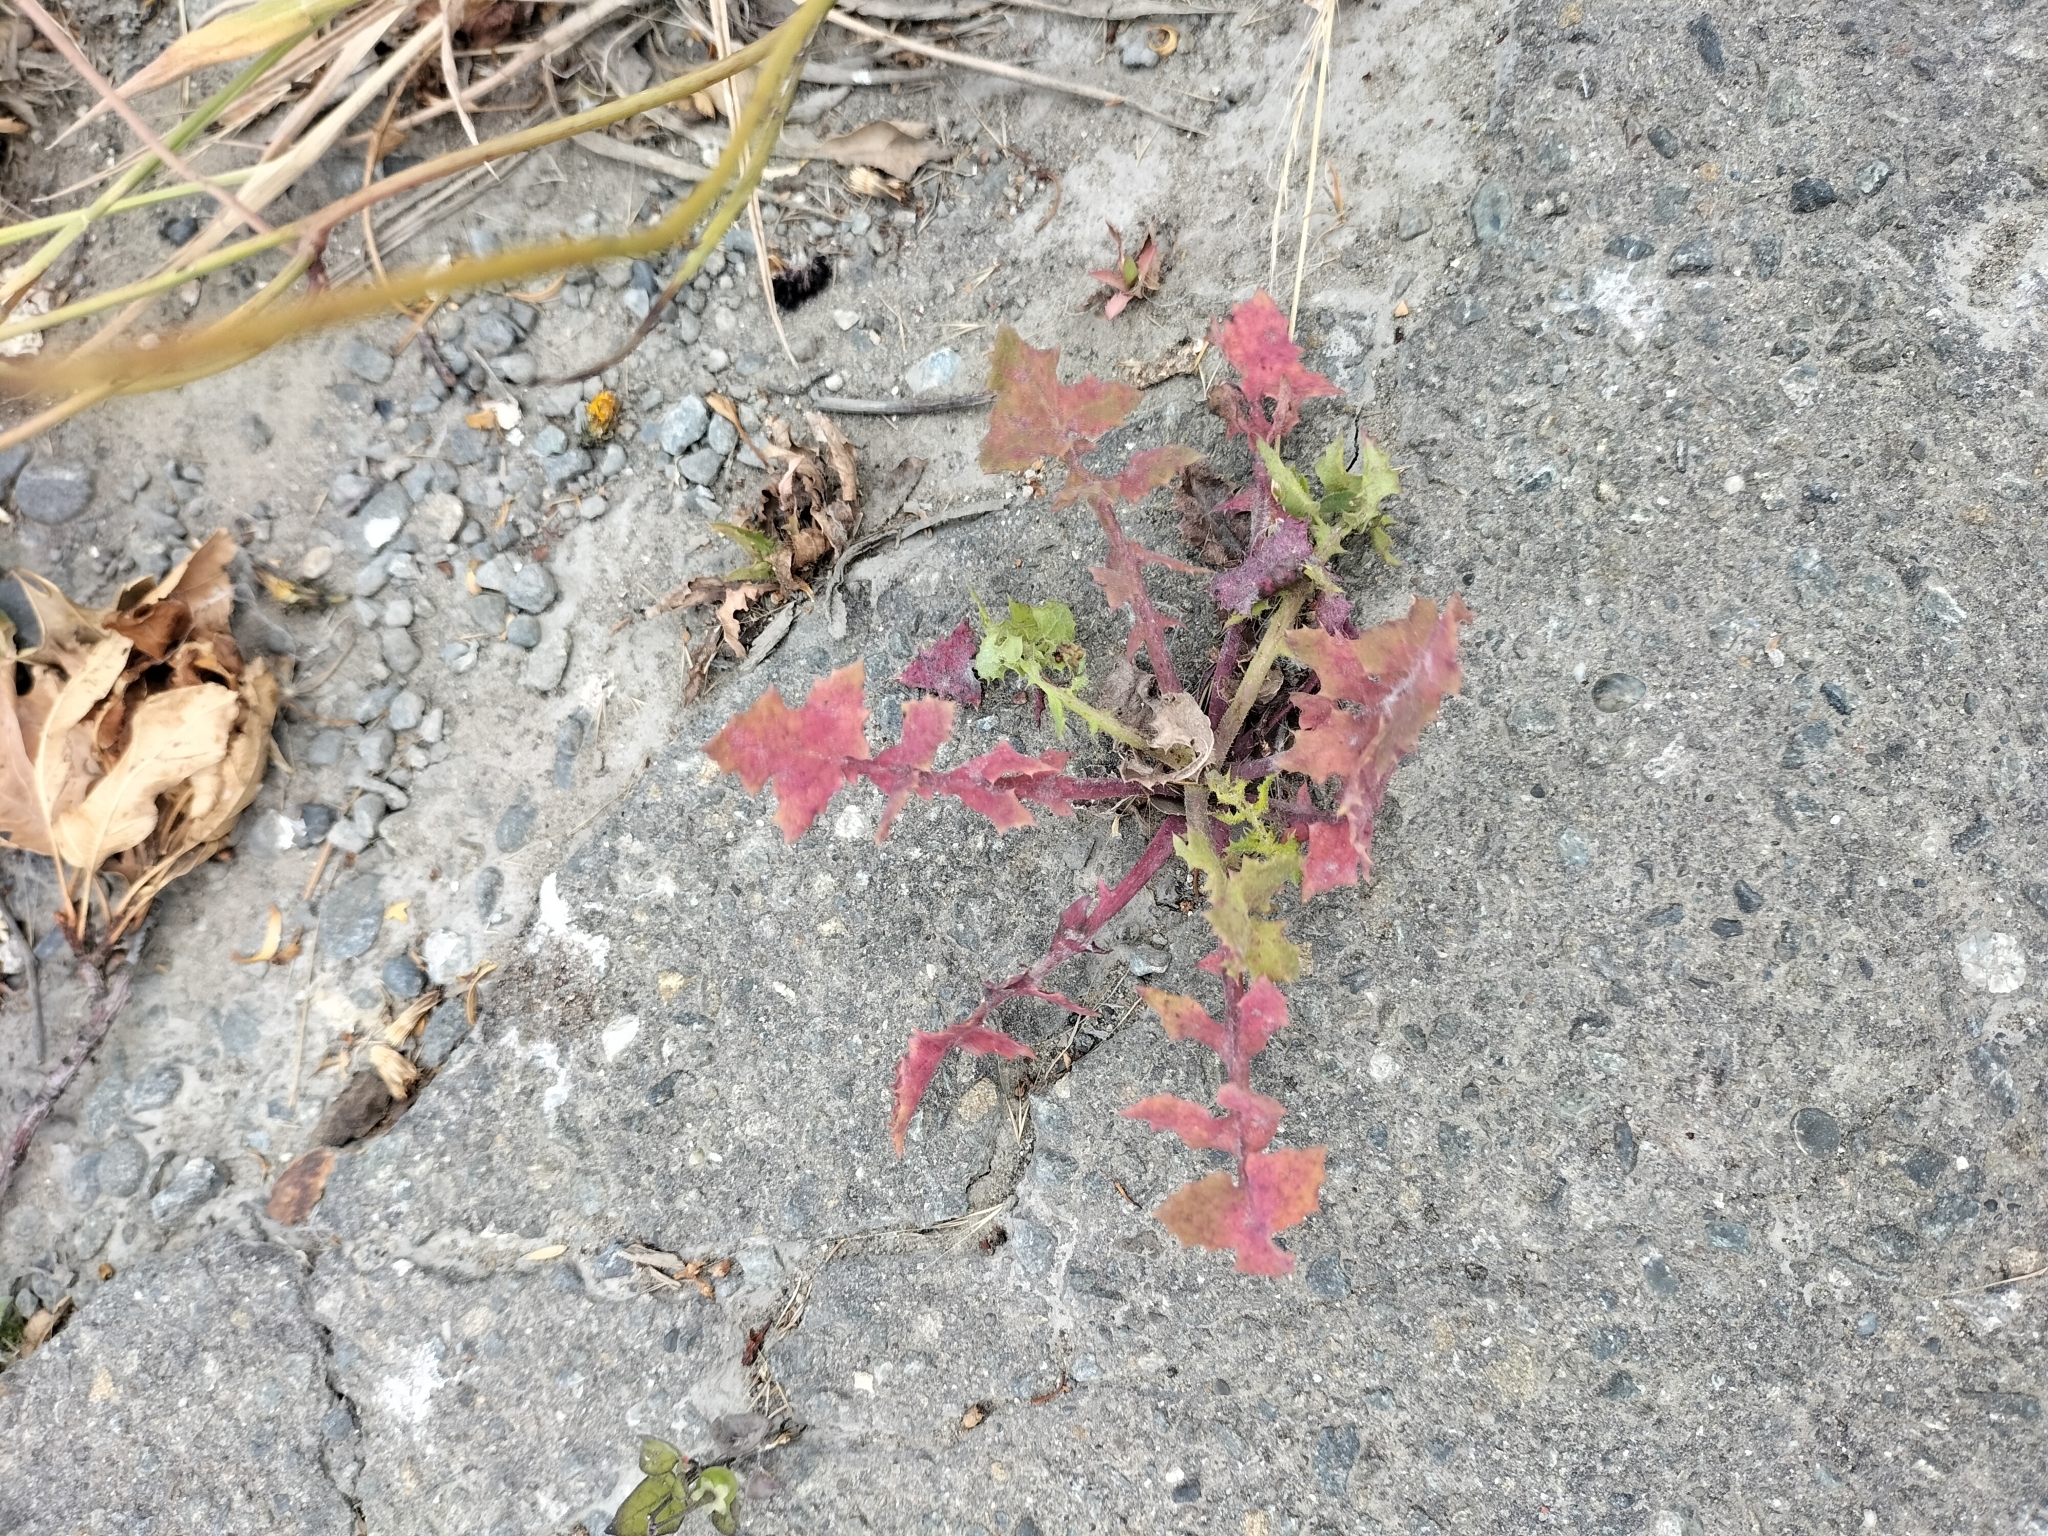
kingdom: Plantae
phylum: Tracheophyta
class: Magnoliopsida
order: Asterales
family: Asteraceae
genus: Sonchus
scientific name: Sonchus oleraceus
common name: Common sowthistle
